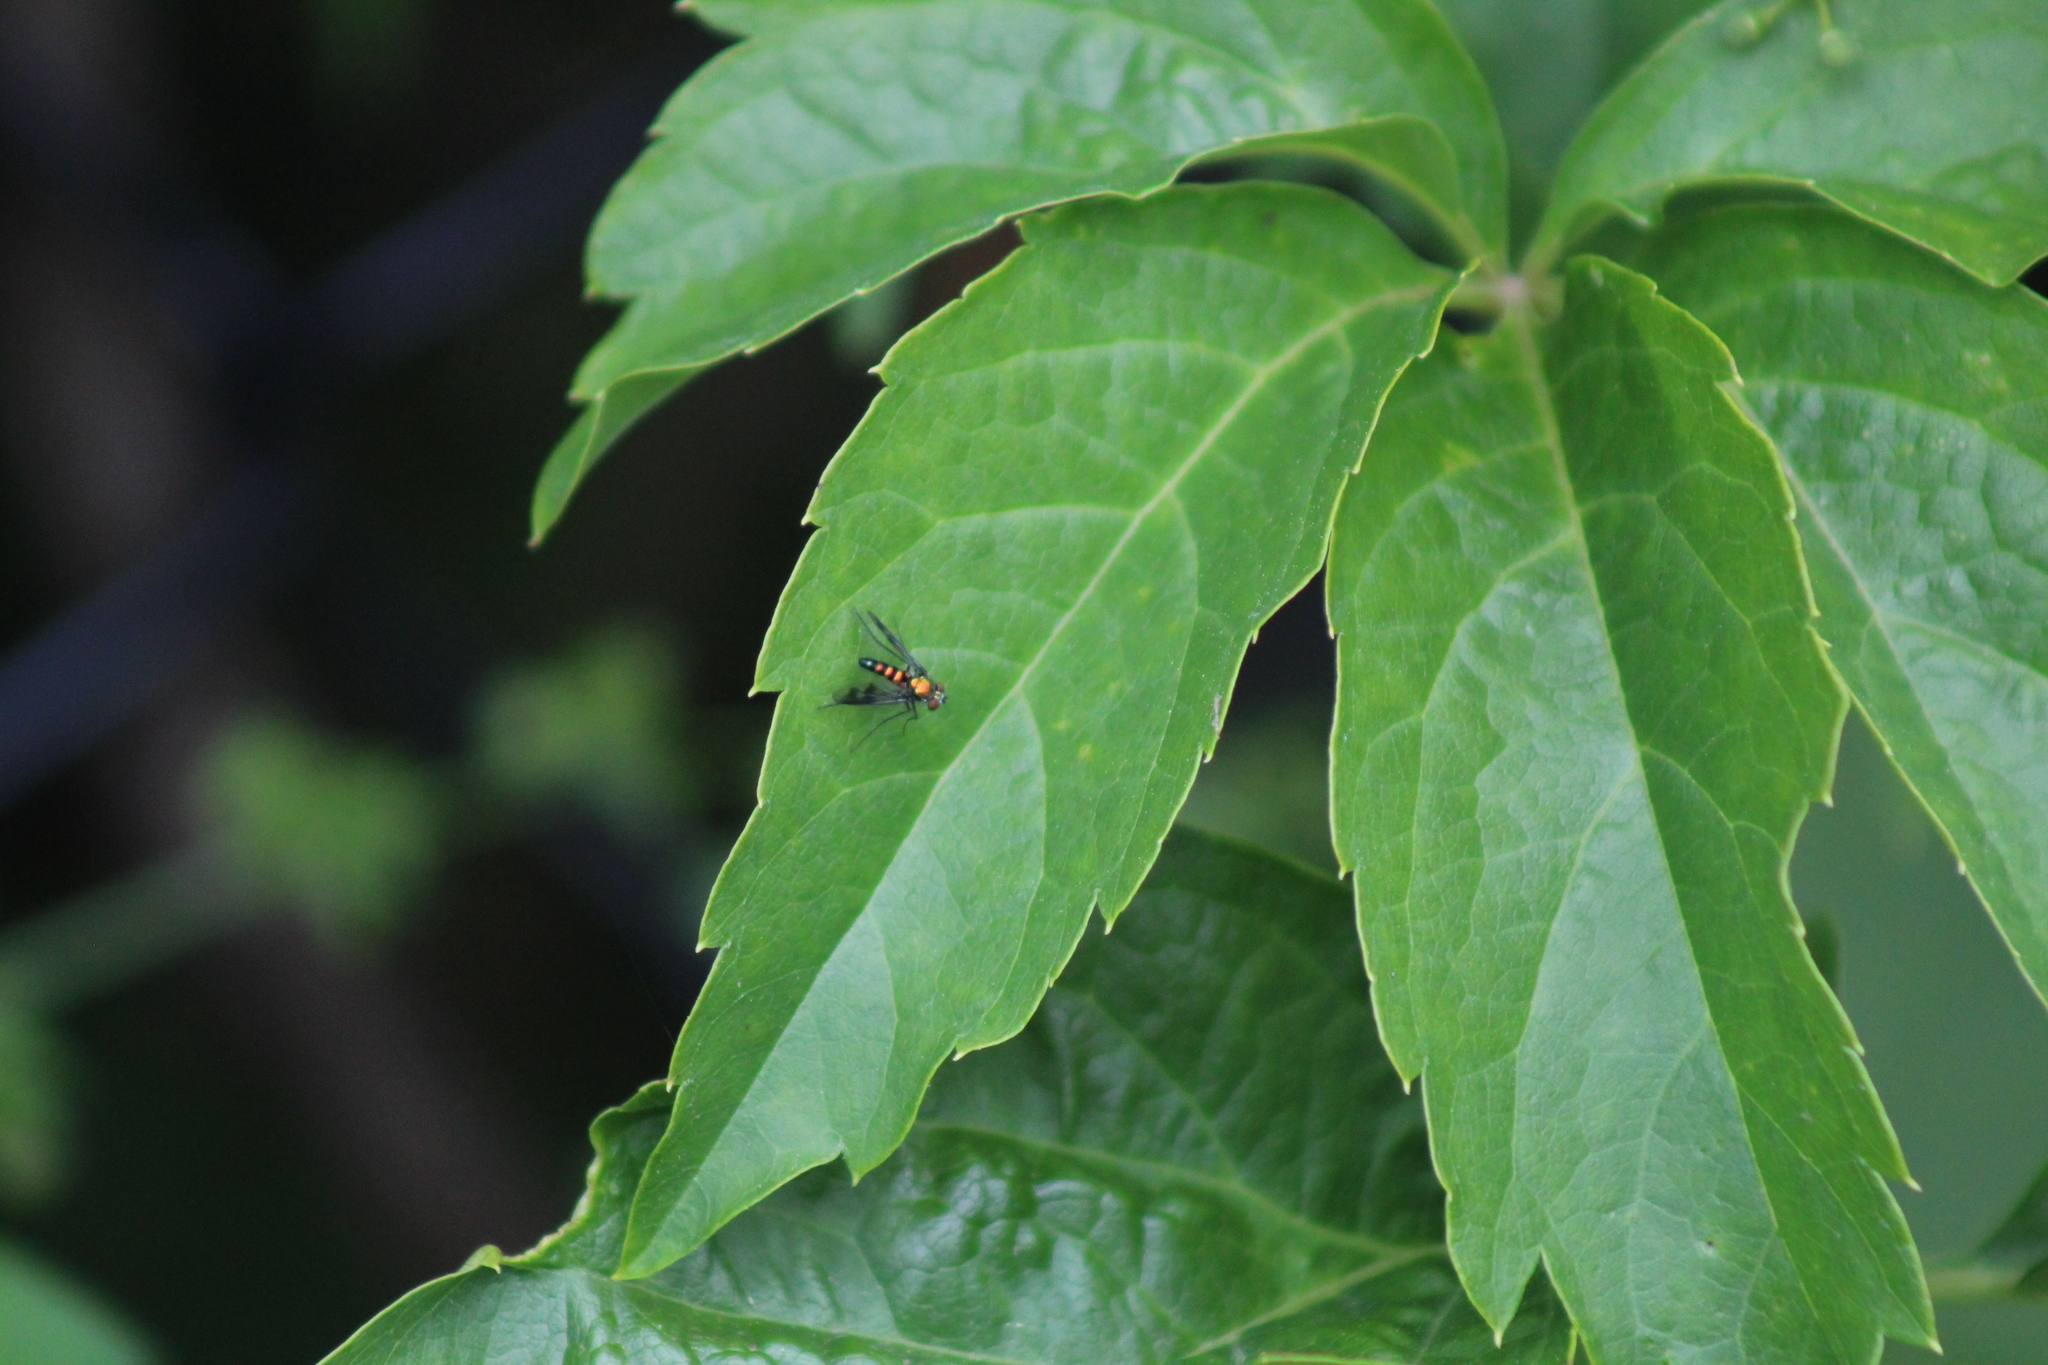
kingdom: Animalia
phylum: Arthropoda
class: Insecta
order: Diptera
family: Dolichopodidae
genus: Condylostylus
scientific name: Condylostylus patibulatus
